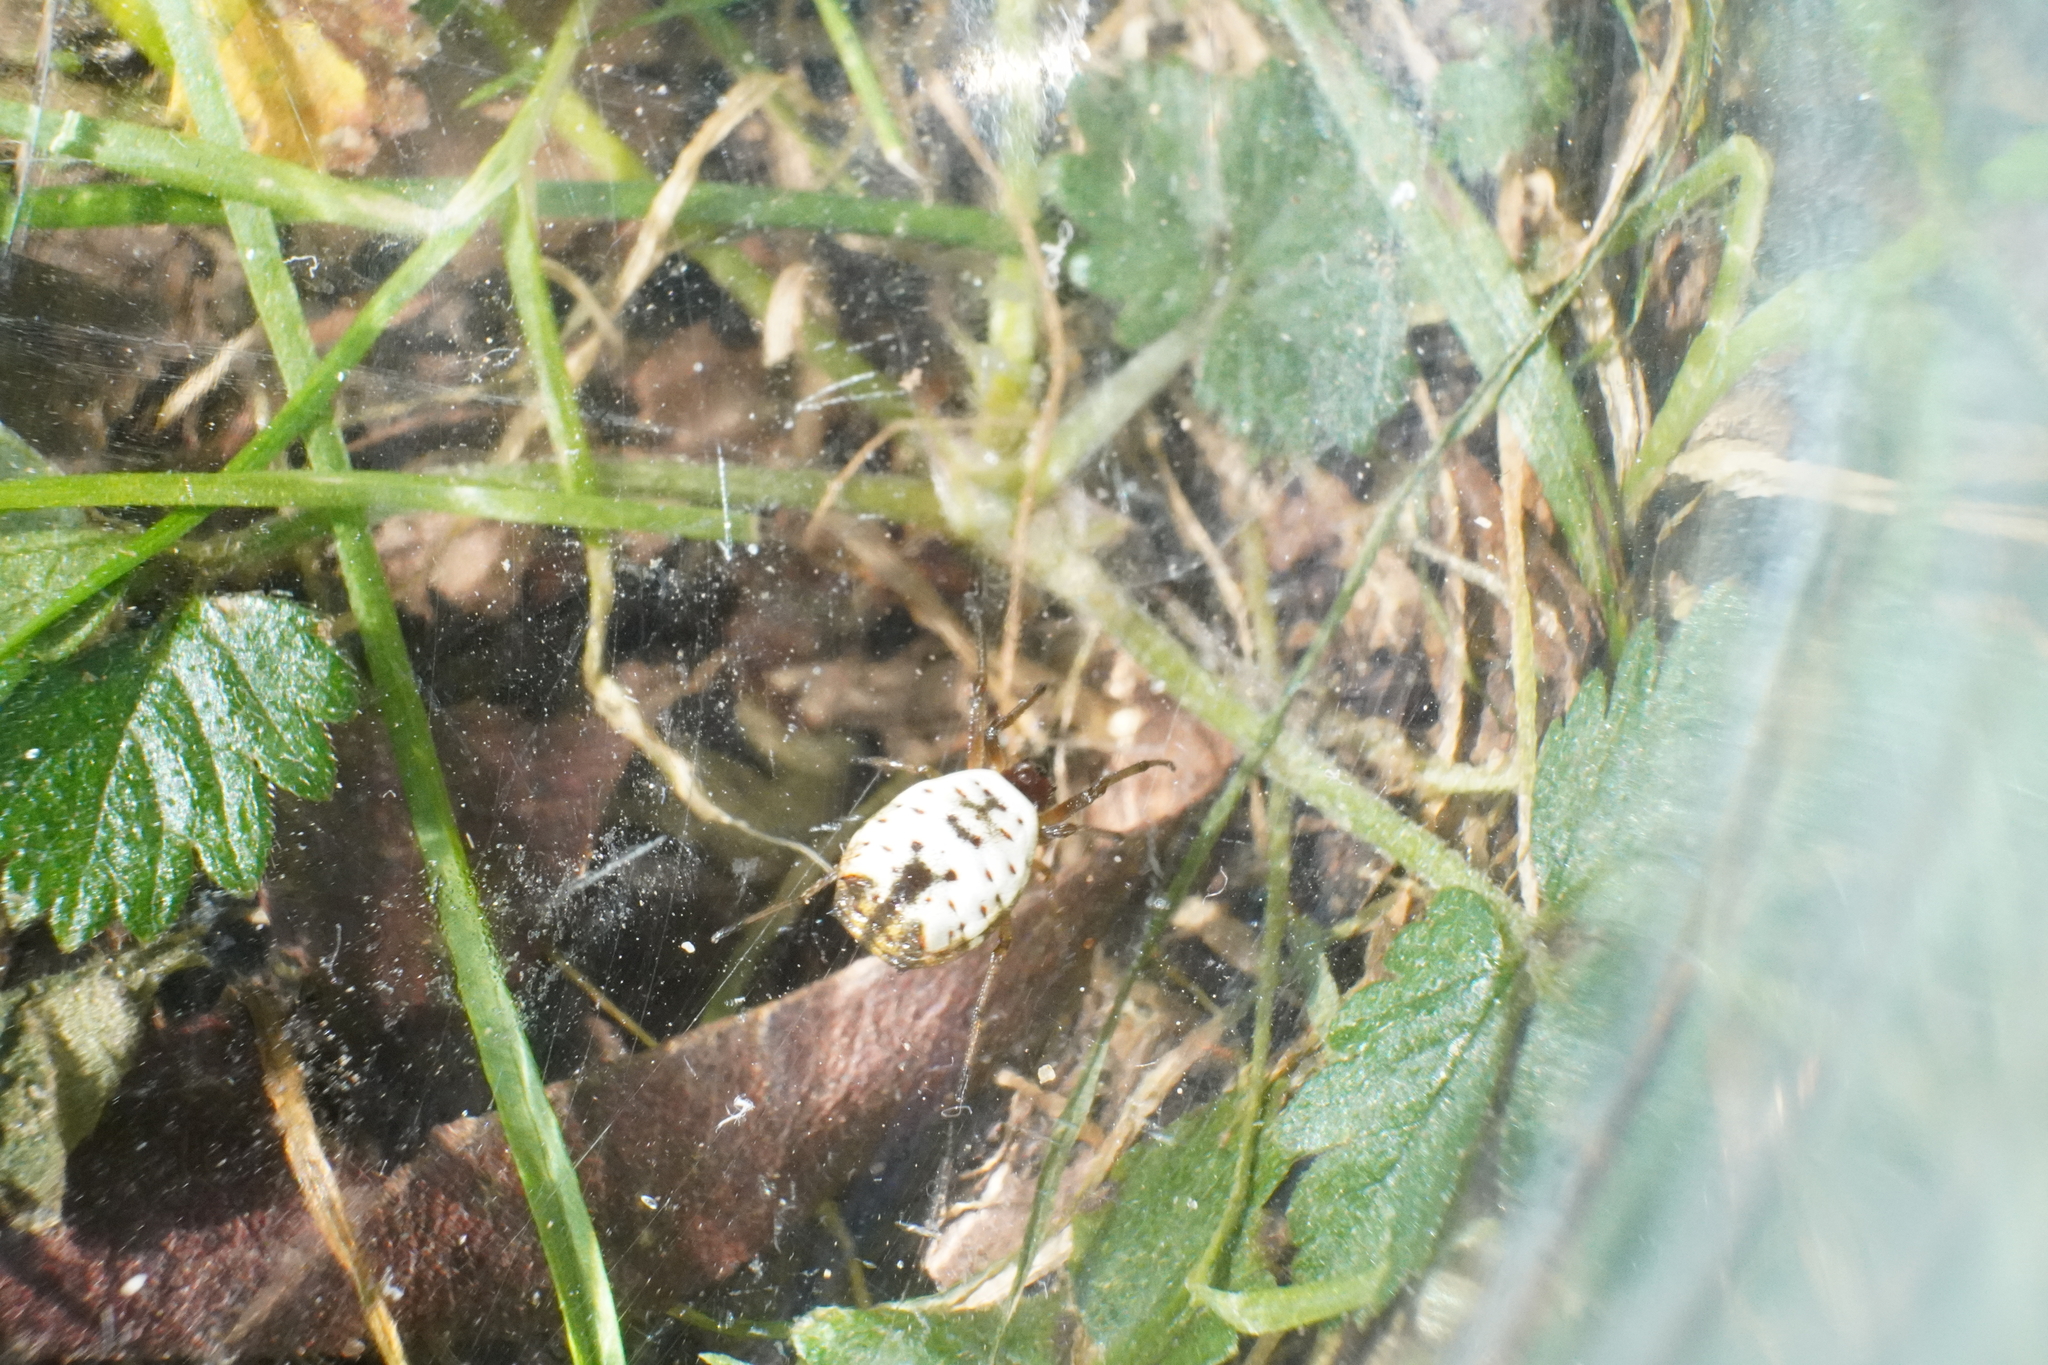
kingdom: Animalia
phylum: Arthropoda
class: Arachnida
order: Araneae
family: Araneidae
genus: Micrathena
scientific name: Micrathena mitrata
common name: Orb weavers
